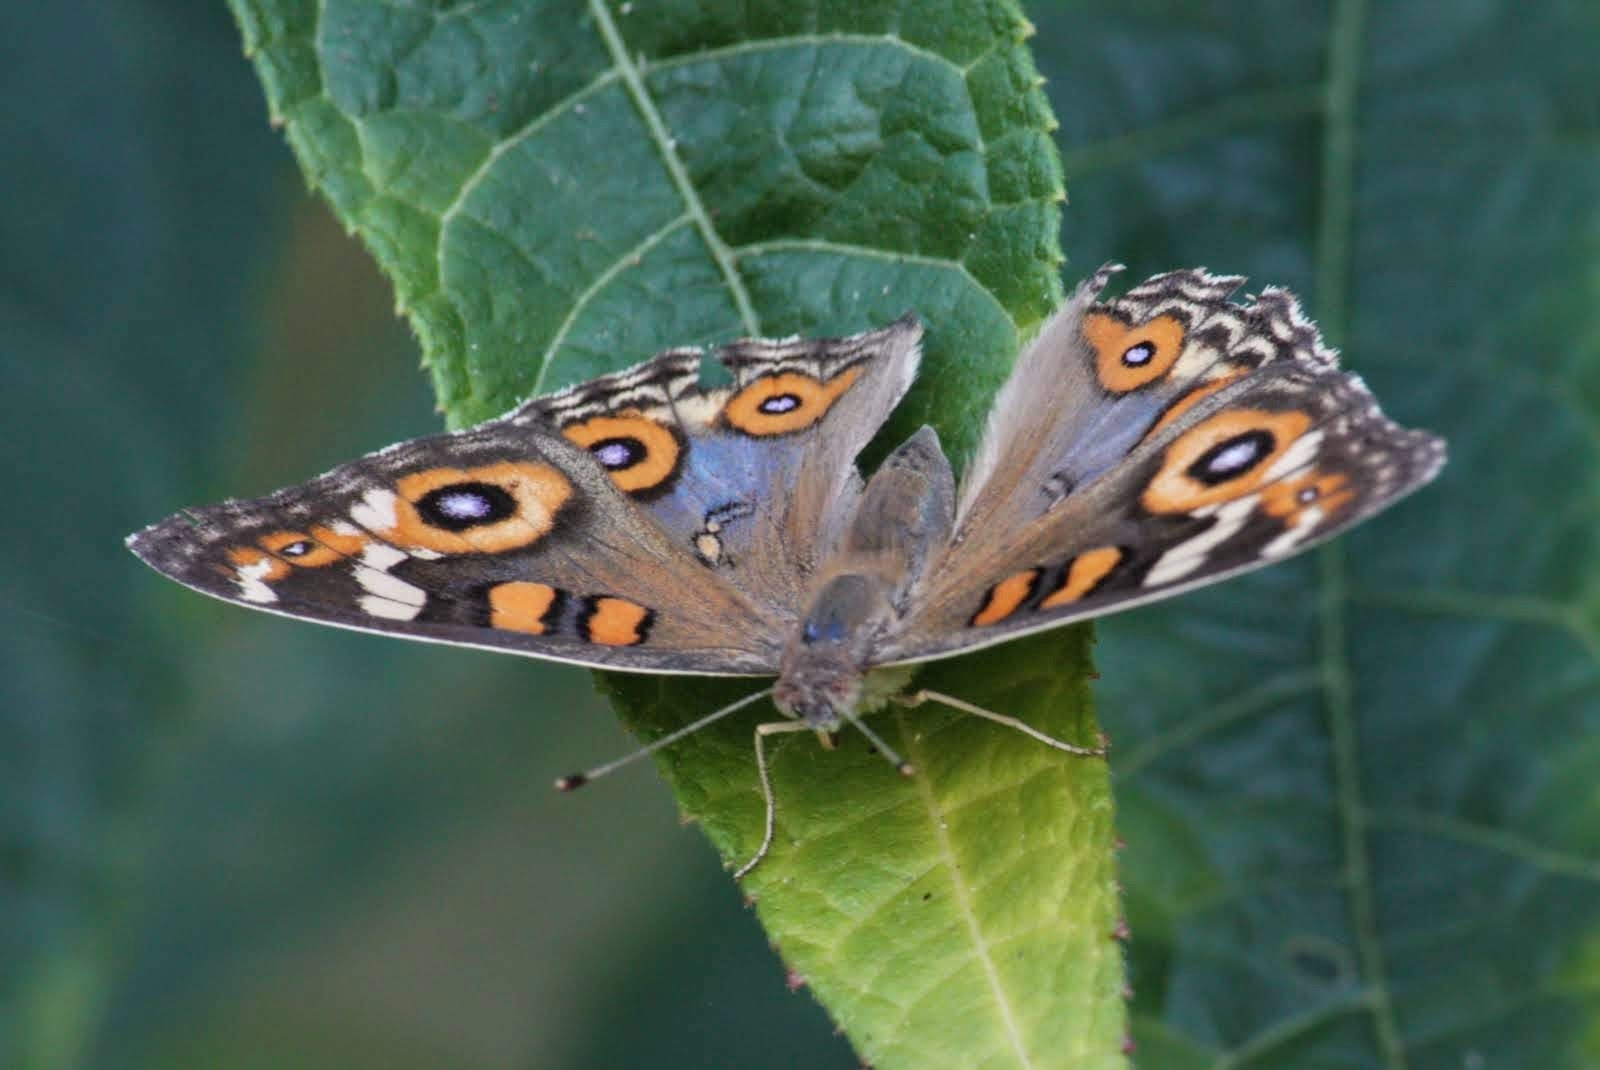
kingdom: Animalia
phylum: Arthropoda
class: Insecta
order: Lepidoptera
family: Nymphalidae
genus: Junonia
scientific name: Junonia villida
